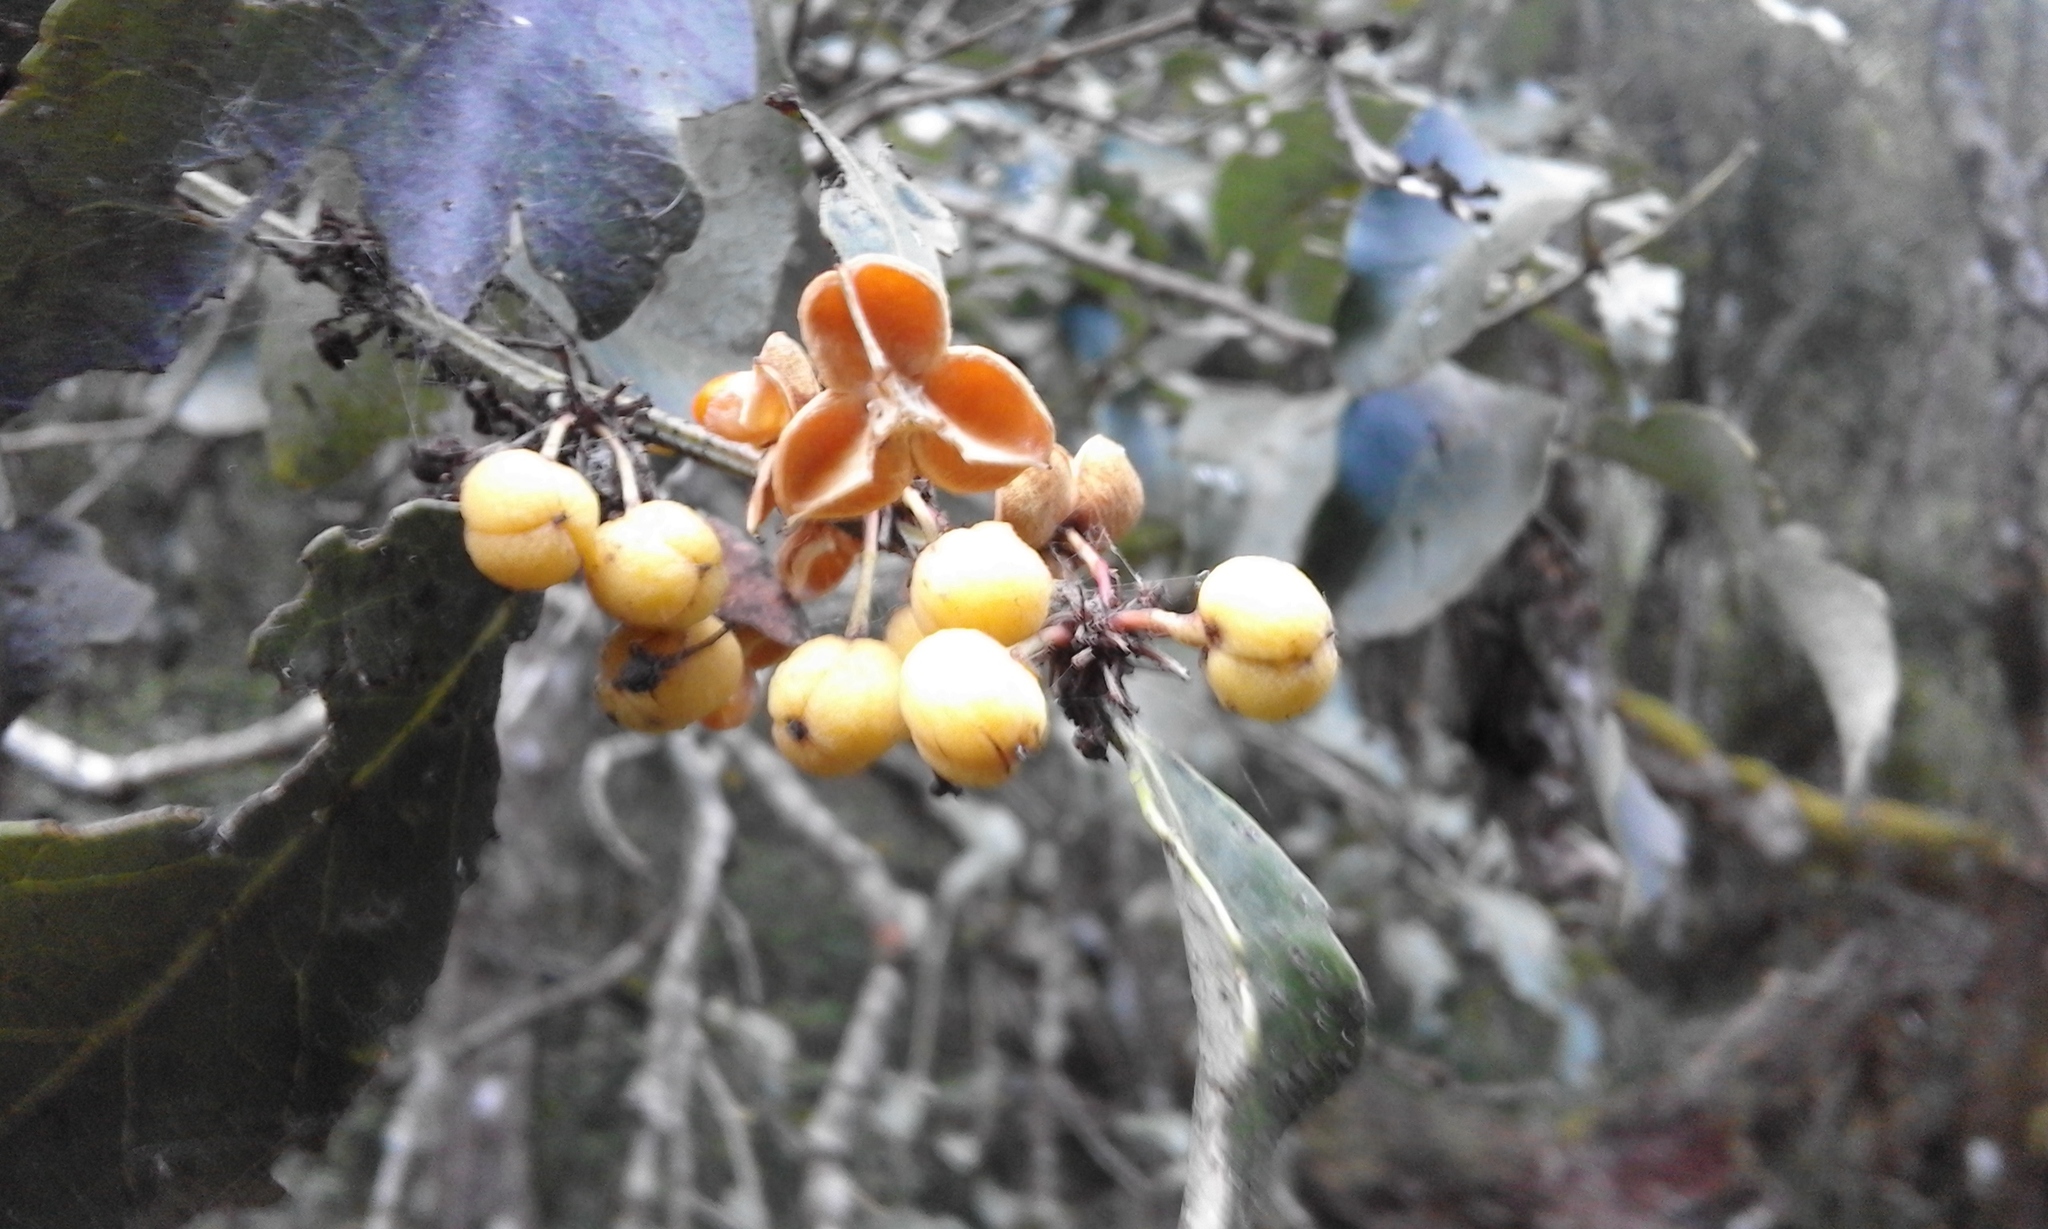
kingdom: Plantae
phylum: Tracheophyta
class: Magnoliopsida
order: Celastrales
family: Celastraceae
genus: Gymnosporia
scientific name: Gymnosporia undata
